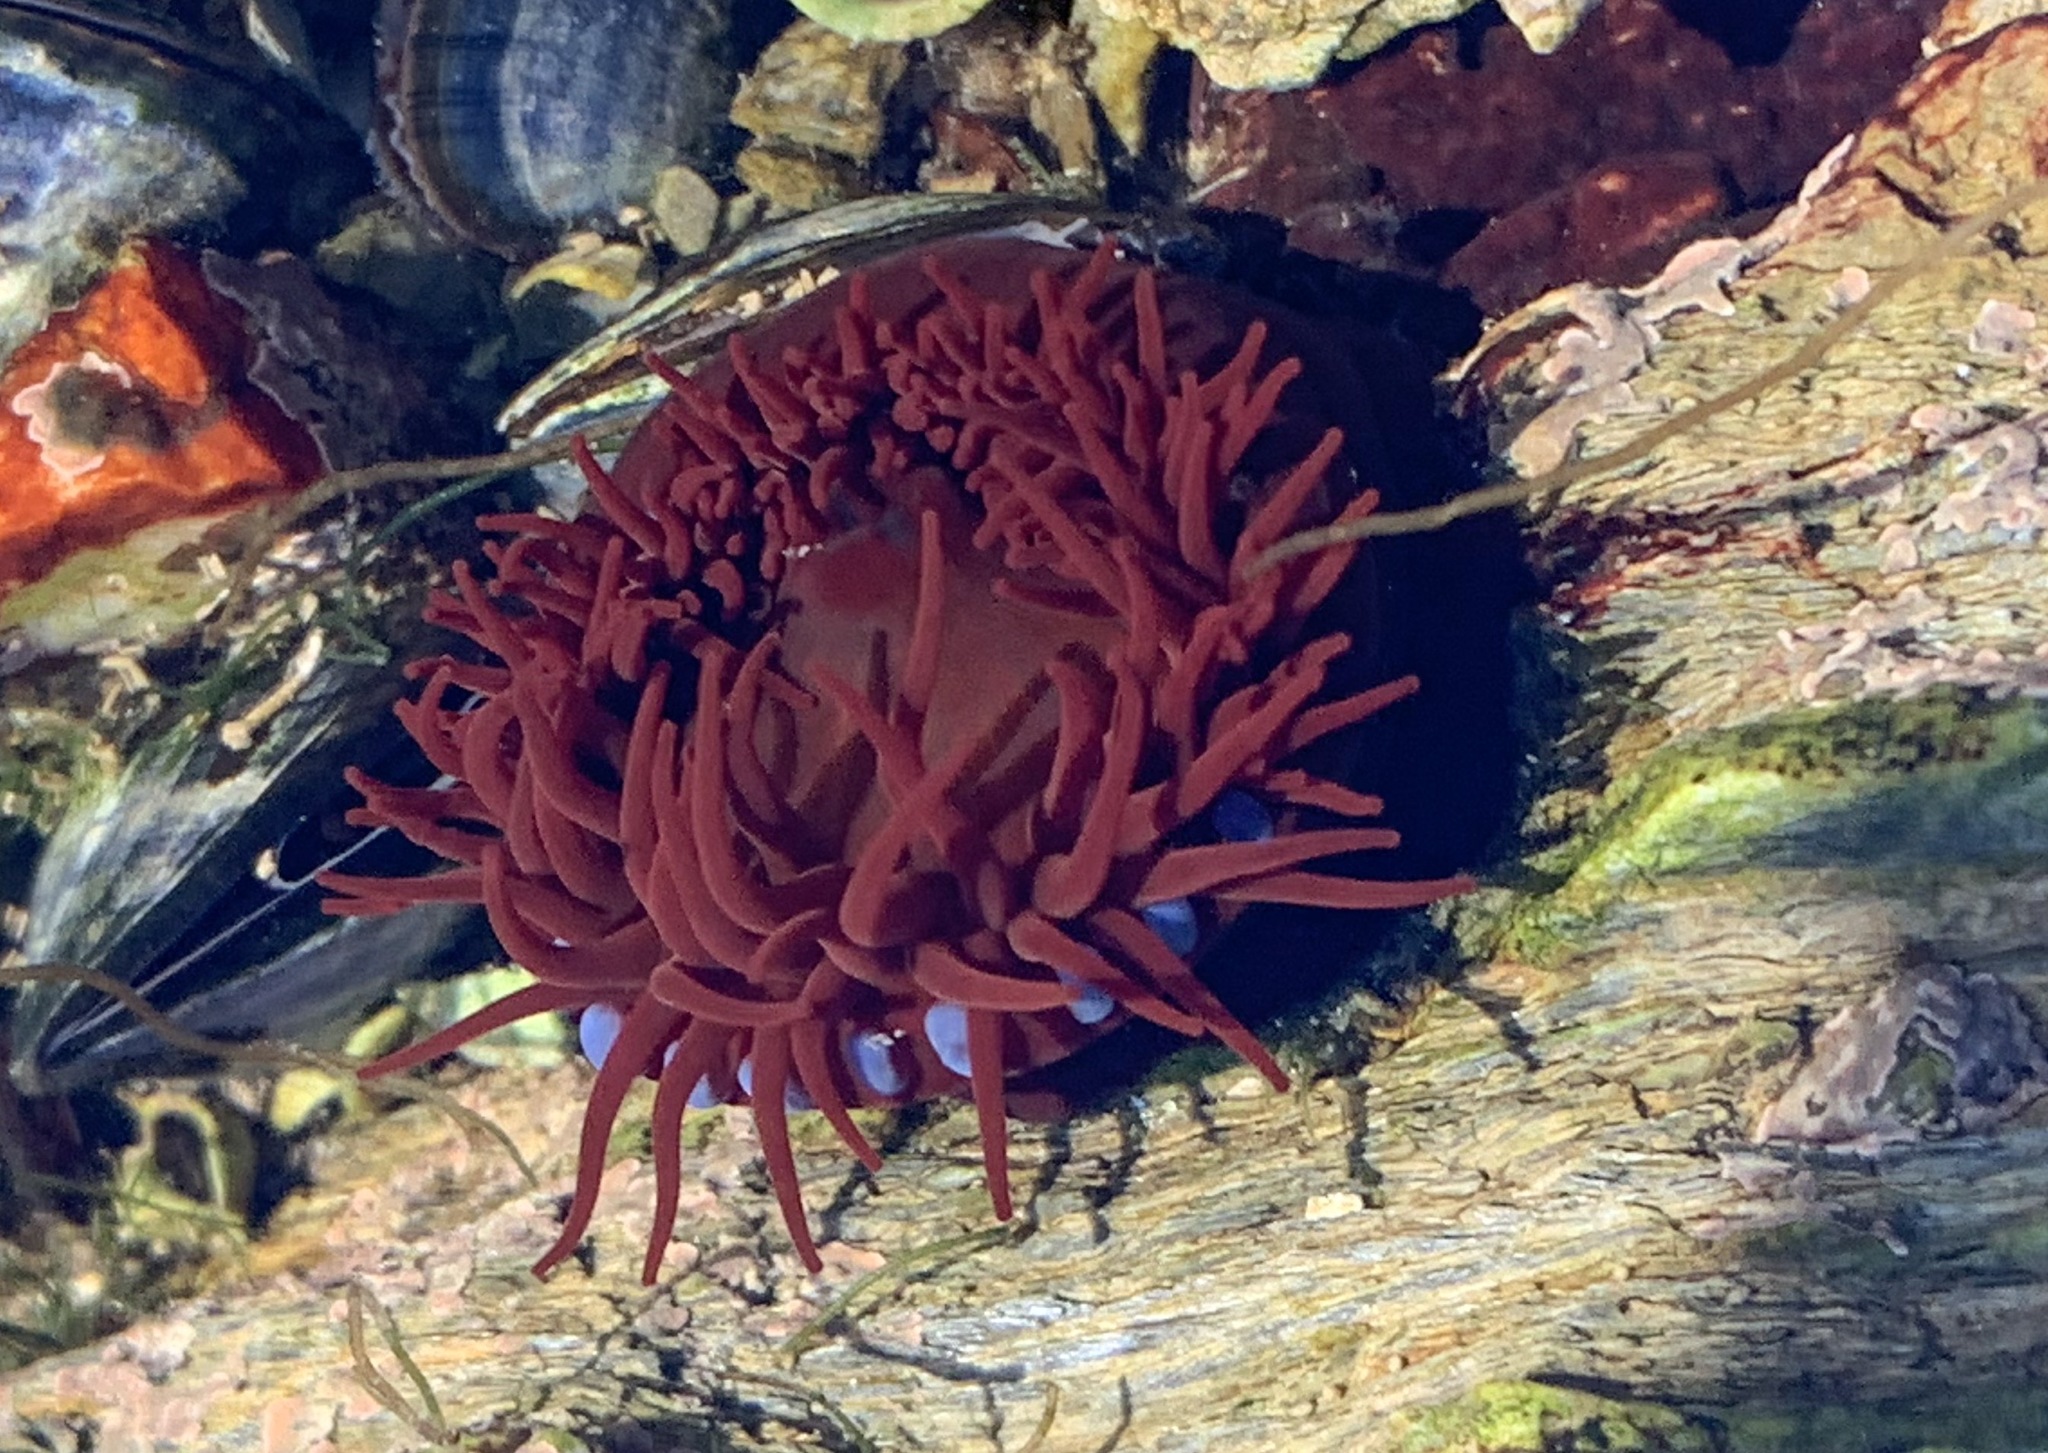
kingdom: Animalia
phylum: Cnidaria
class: Anthozoa
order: Actiniaria
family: Actiniidae
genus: Actinia
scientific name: Actinia equina
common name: Beadlet anemone
